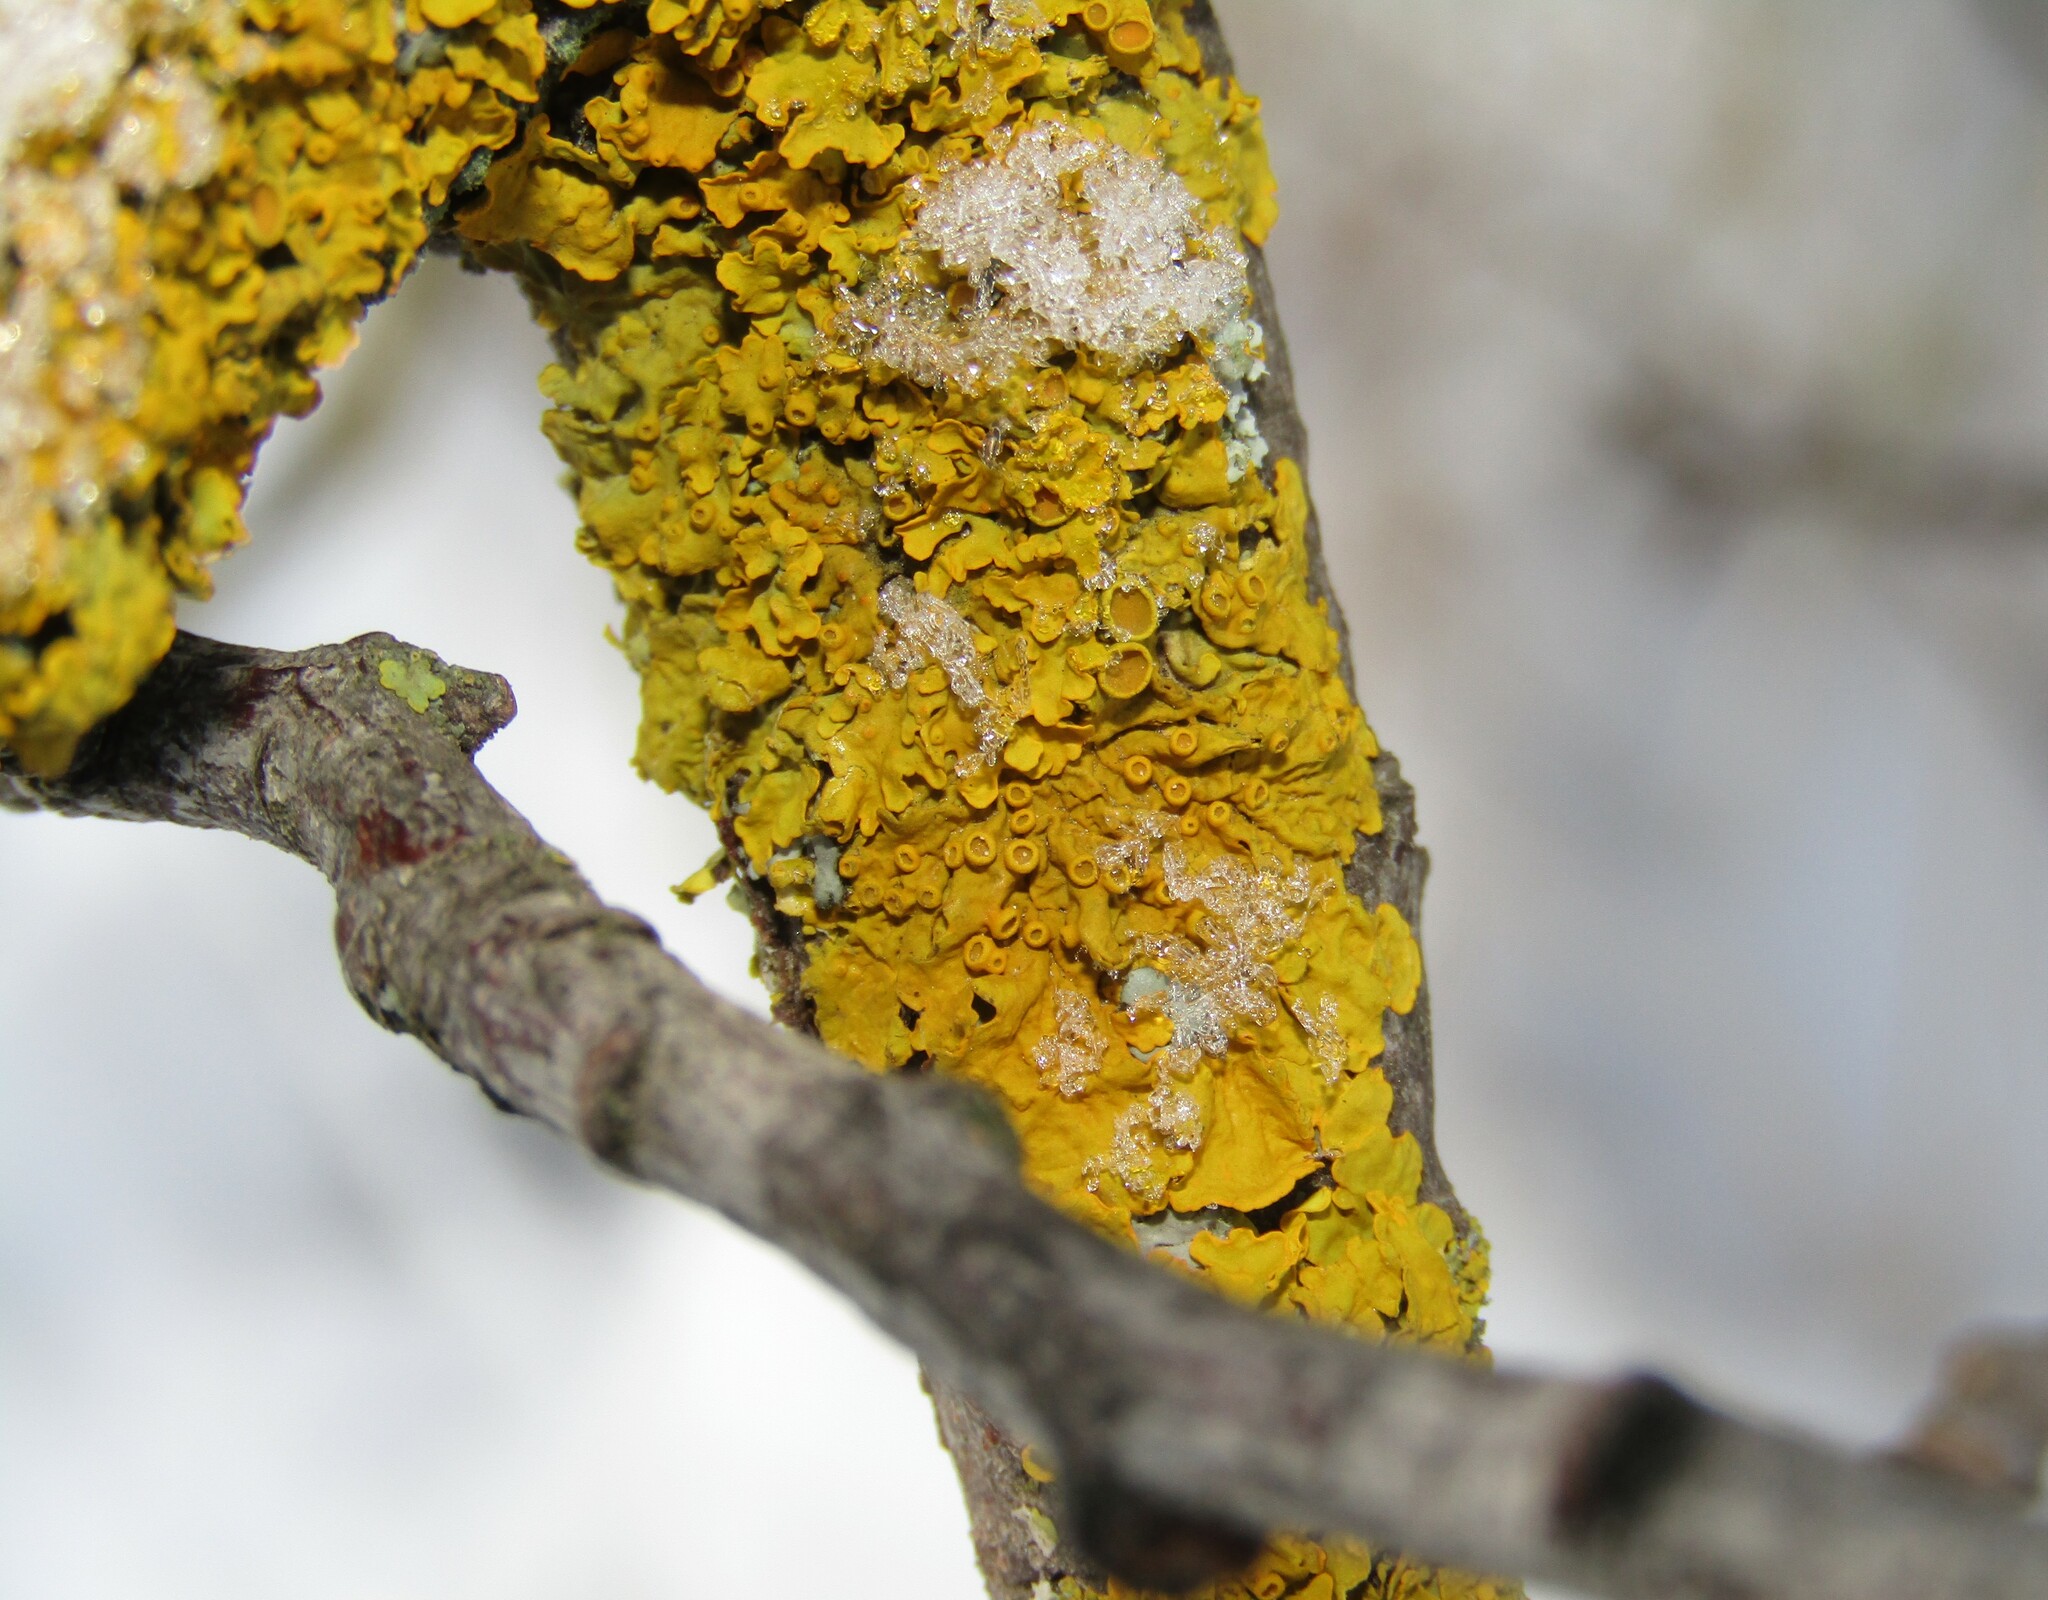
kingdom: Fungi
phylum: Ascomycota
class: Lecanoromycetes
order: Teloschistales
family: Teloschistaceae
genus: Xanthoria
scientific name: Xanthoria parietina
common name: Common orange lichen
